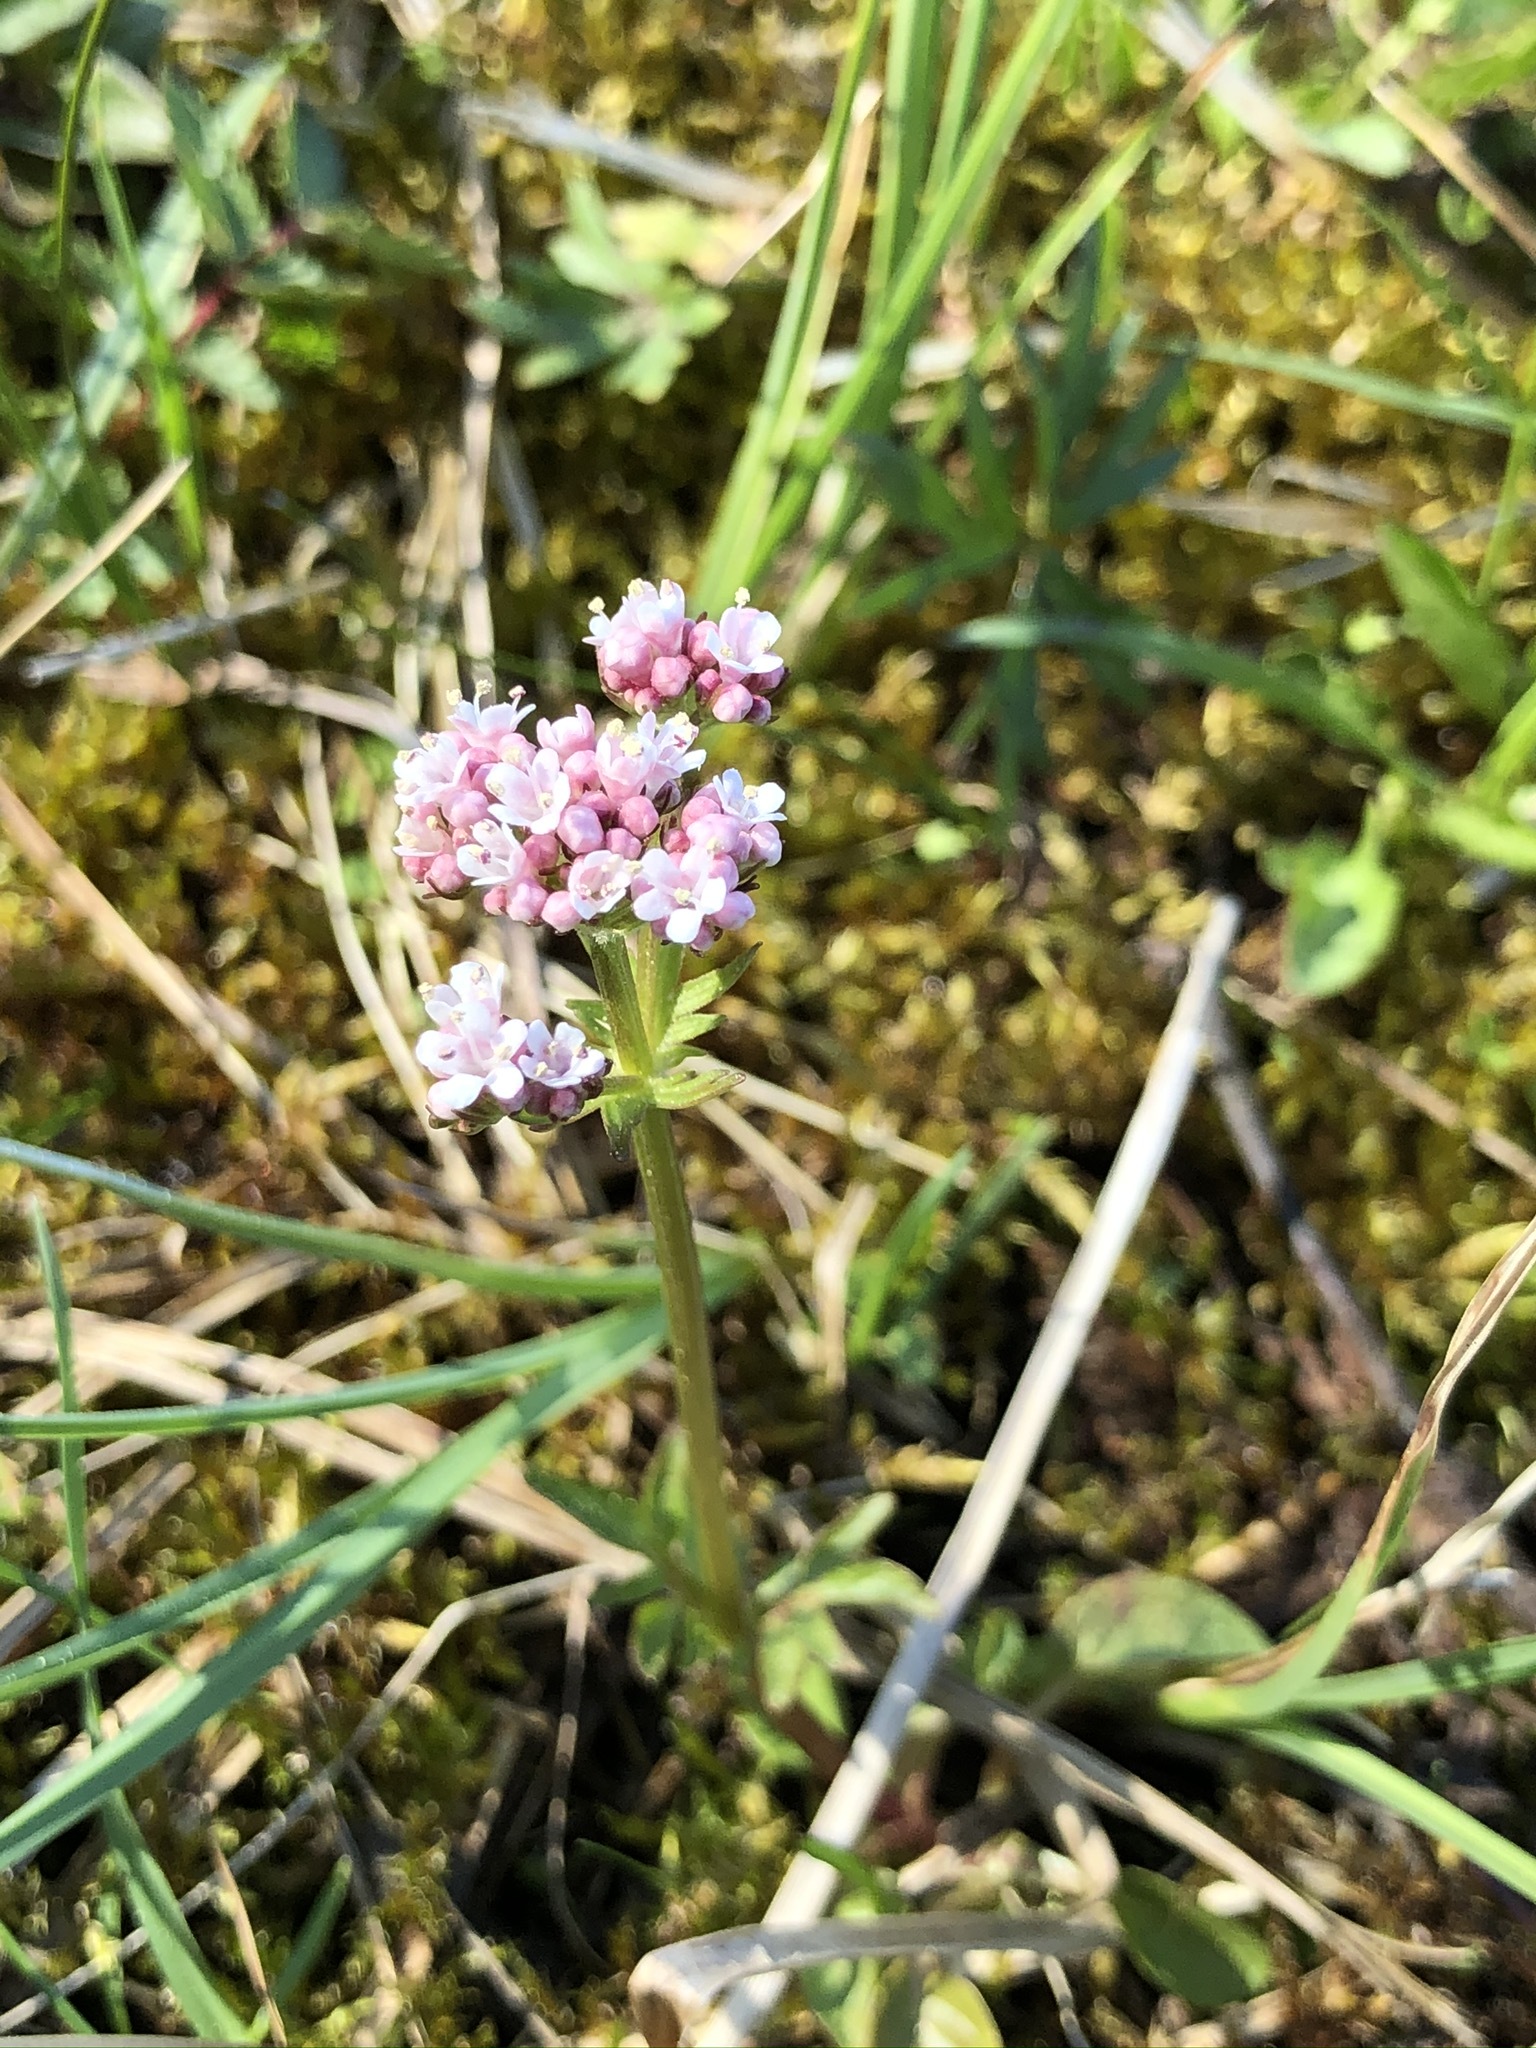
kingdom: Plantae
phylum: Tracheophyta
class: Magnoliopsida
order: Dipsacales
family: Caprifoliaceae
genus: Valeriana
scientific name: Valeriana dioica
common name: Marsh valerian
